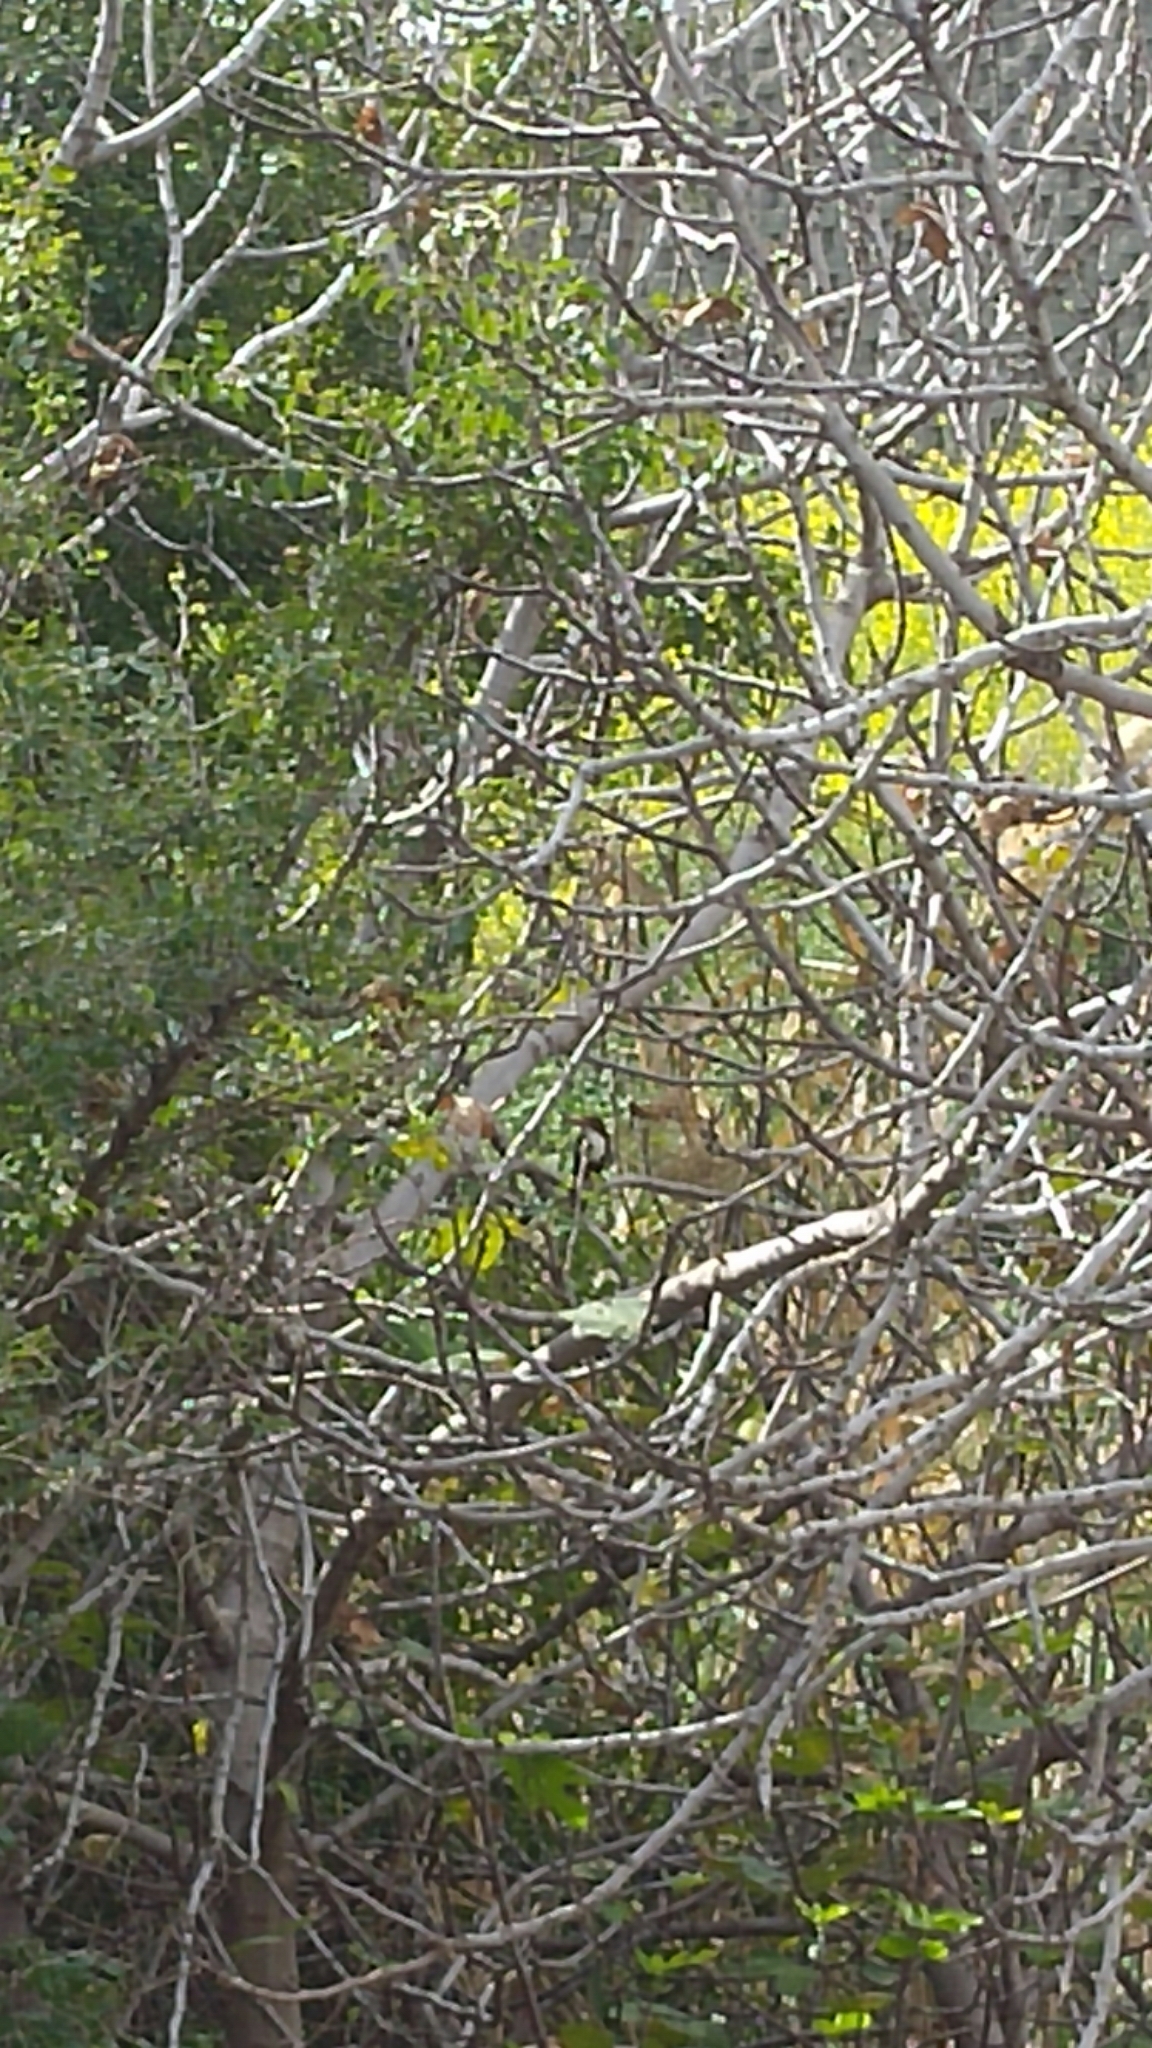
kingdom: Animalia
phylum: Chordata
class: Aves
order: Coraciiformes
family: Alcedinidae
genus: Halcyon
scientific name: Halcyon smyrnensis
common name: White-throated kingfisher
